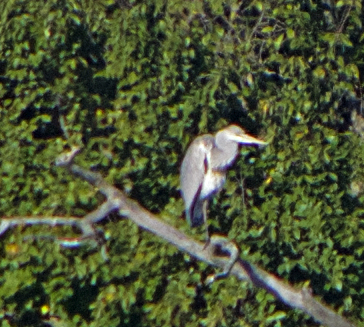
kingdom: Animalia
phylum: Chordata
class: Aves
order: Pelecaniformes
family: Ardeidae
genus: Ardea
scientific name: Ardea cinerea
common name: Grey heron
